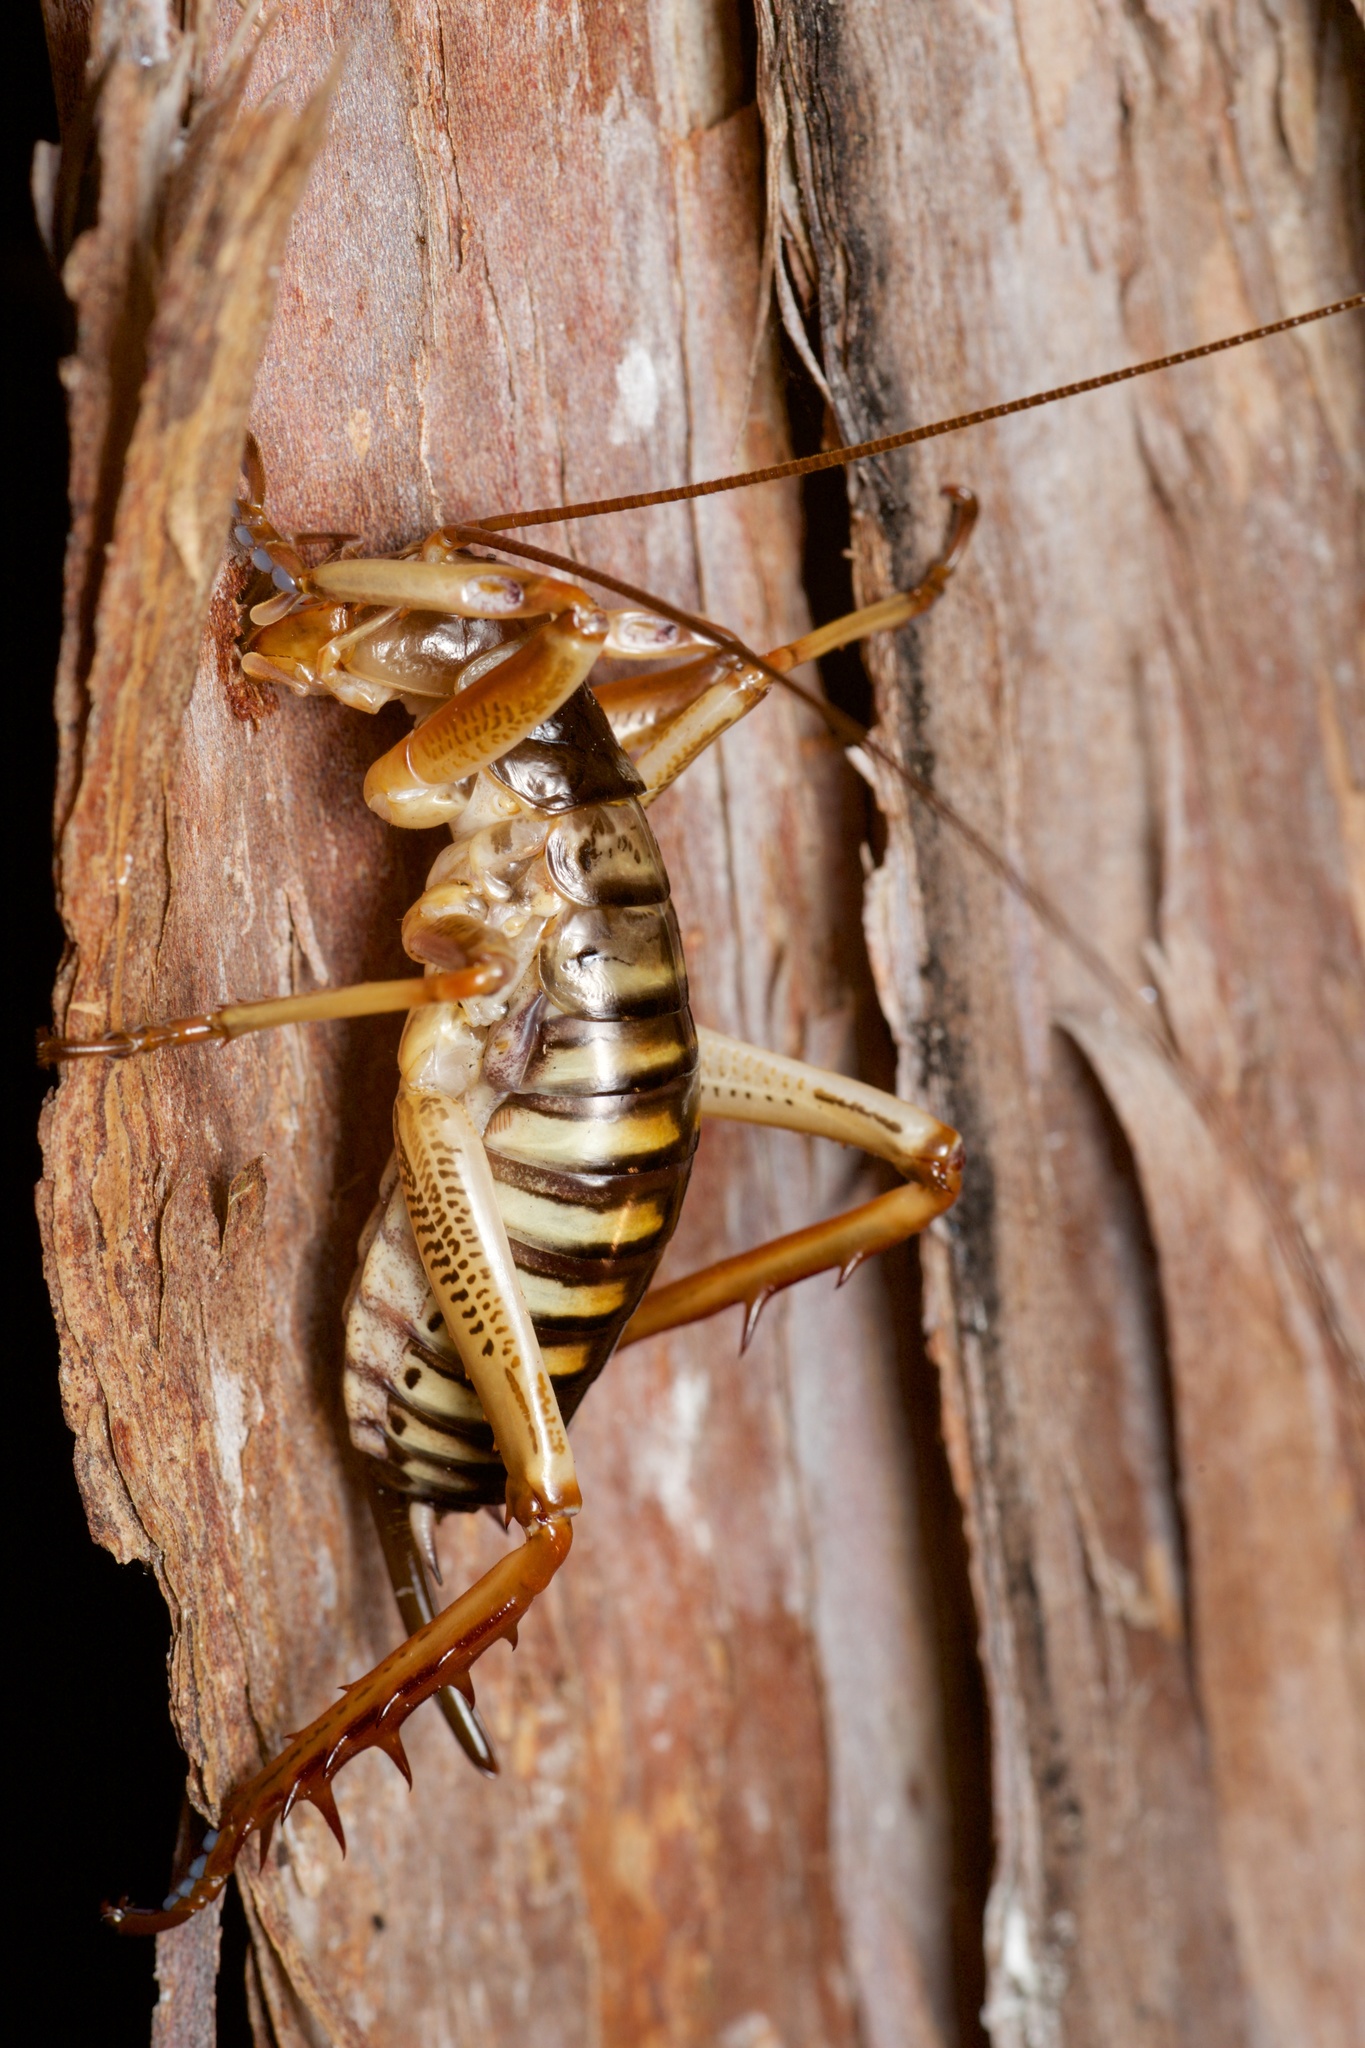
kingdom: Animalia
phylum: Arthropoda
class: Insecta
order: Orthoptera
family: Anostostomatidae
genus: Hemideina
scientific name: Hemideina crassidens
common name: Wellington tree weta
